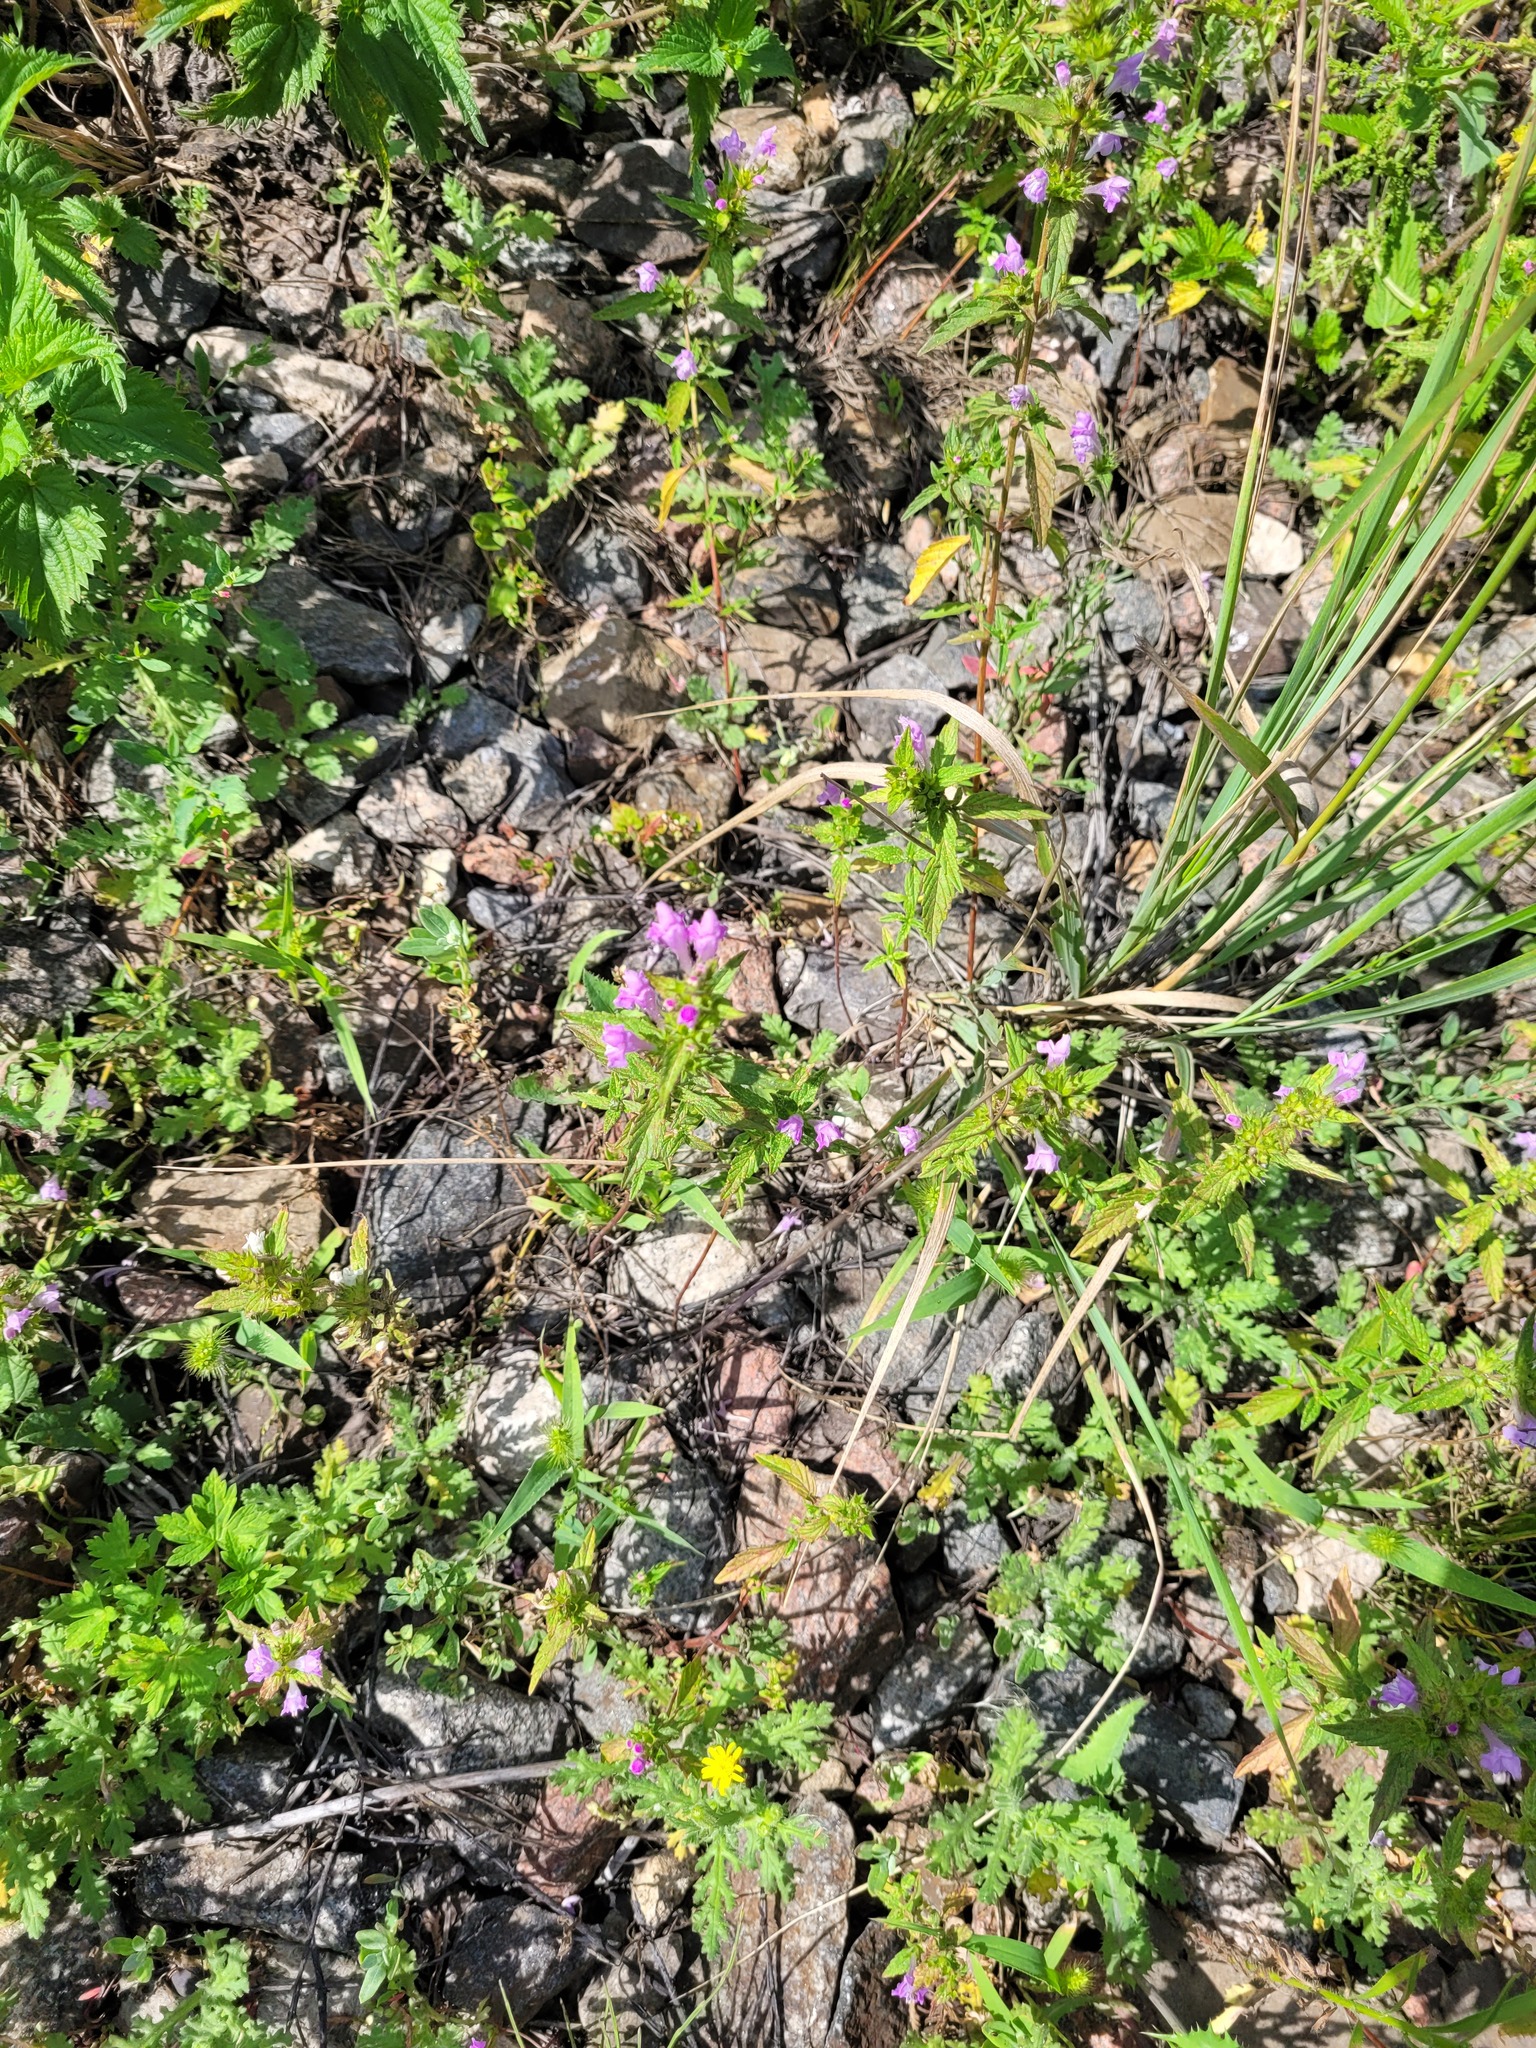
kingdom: Plantae
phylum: Tracheophyta
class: Magnoliopsida
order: Lamiales
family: Lamiaceae
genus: Galeopsis
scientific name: Galeopsis ladanum
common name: Broad-leaved hemp-nettle
